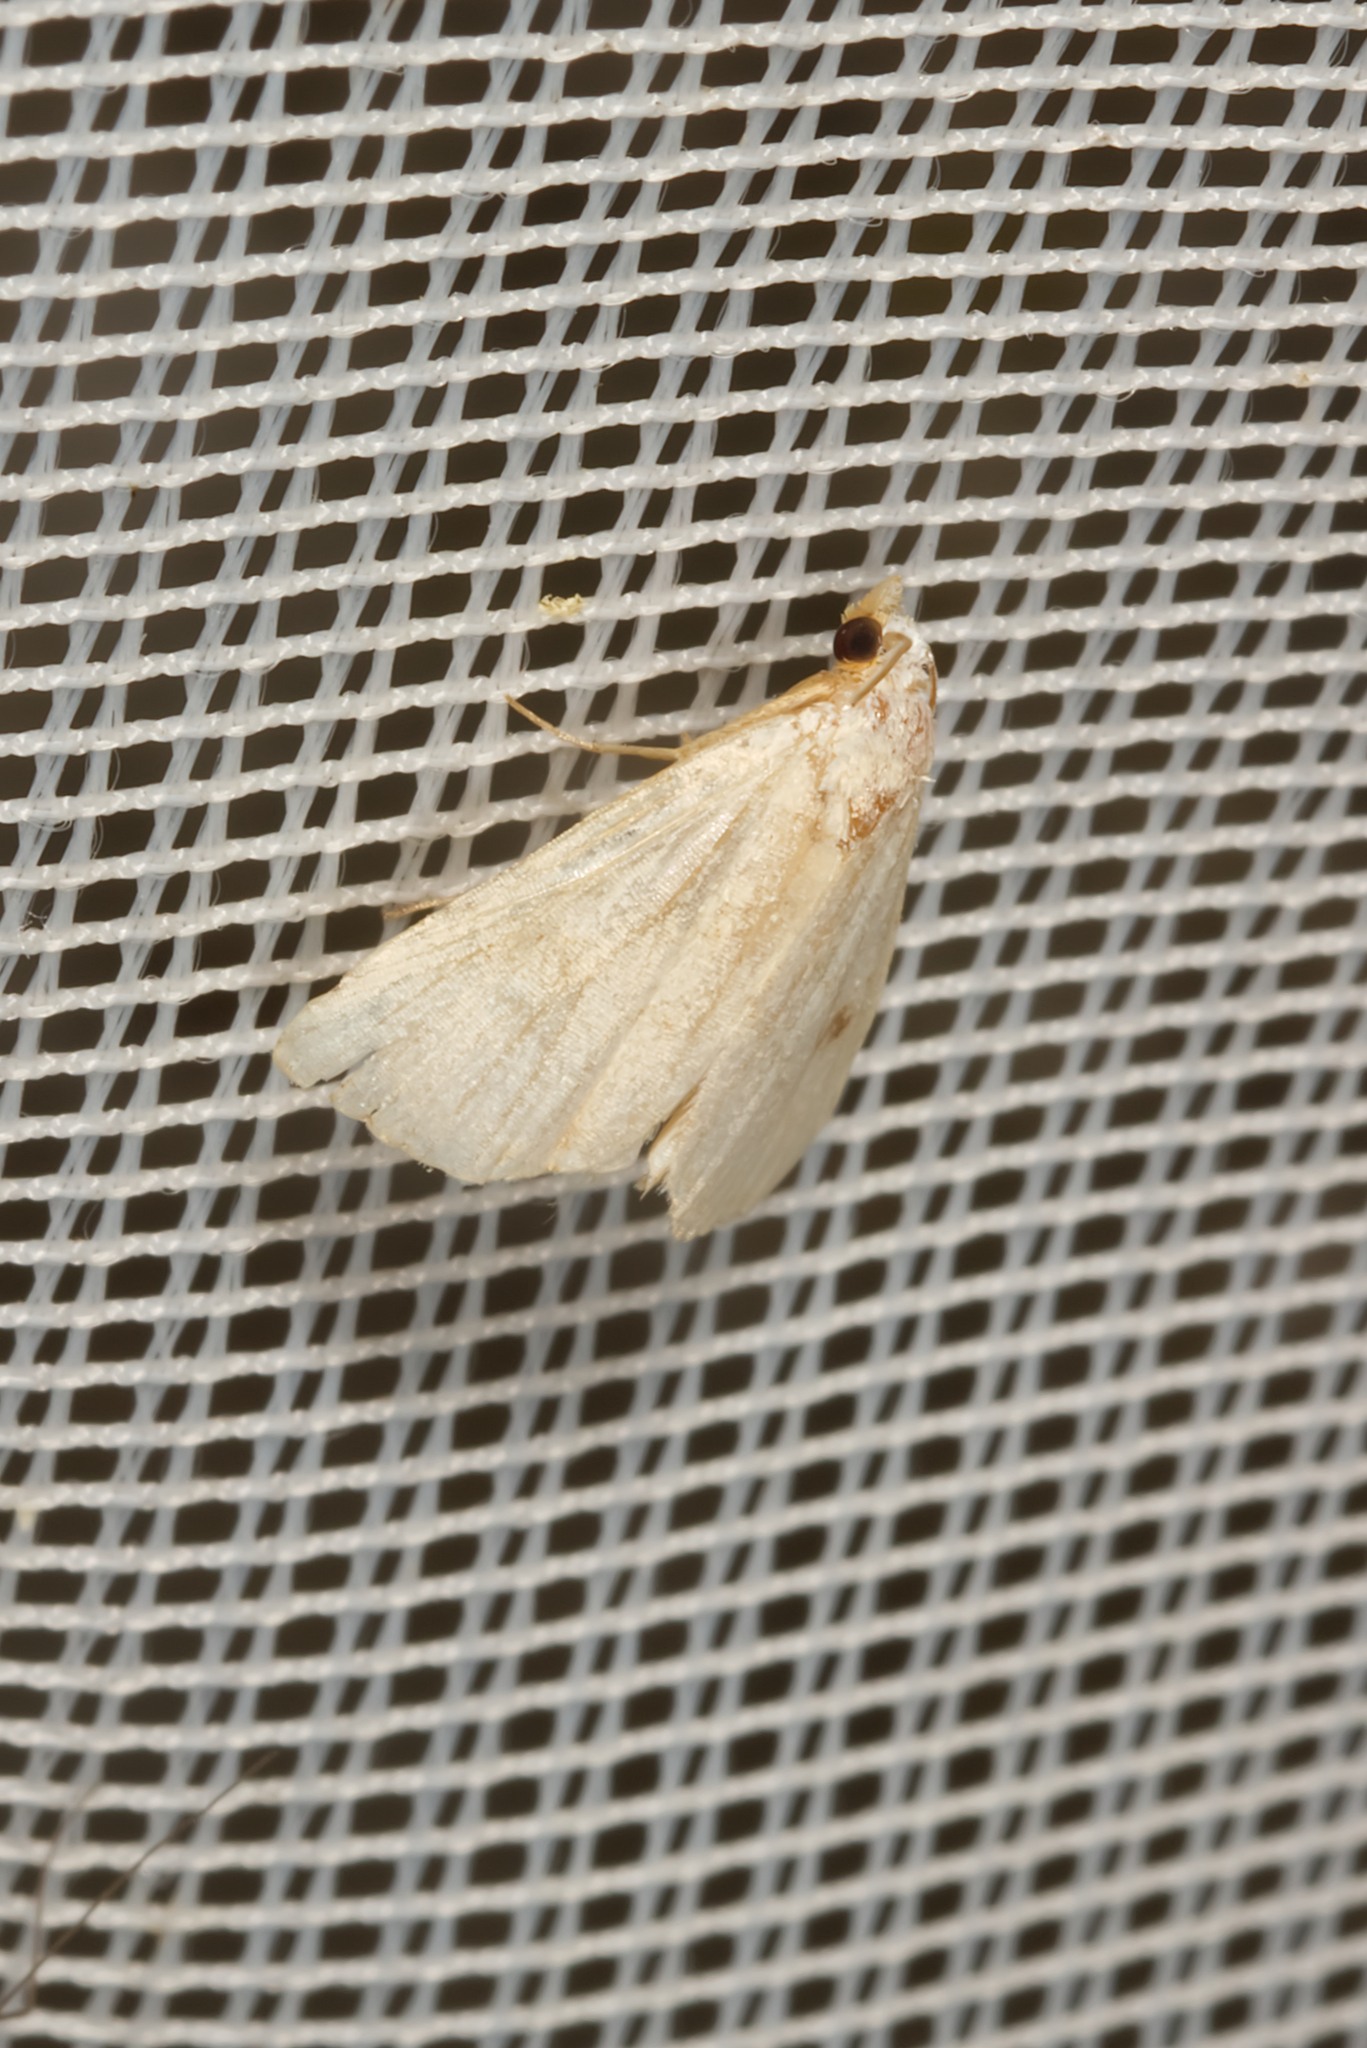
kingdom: Animalia
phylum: Arthropoda
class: Insecta
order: Lepidoptera
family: Erebidae
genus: Rivula
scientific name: Rivula sericealis
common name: Straw dot
